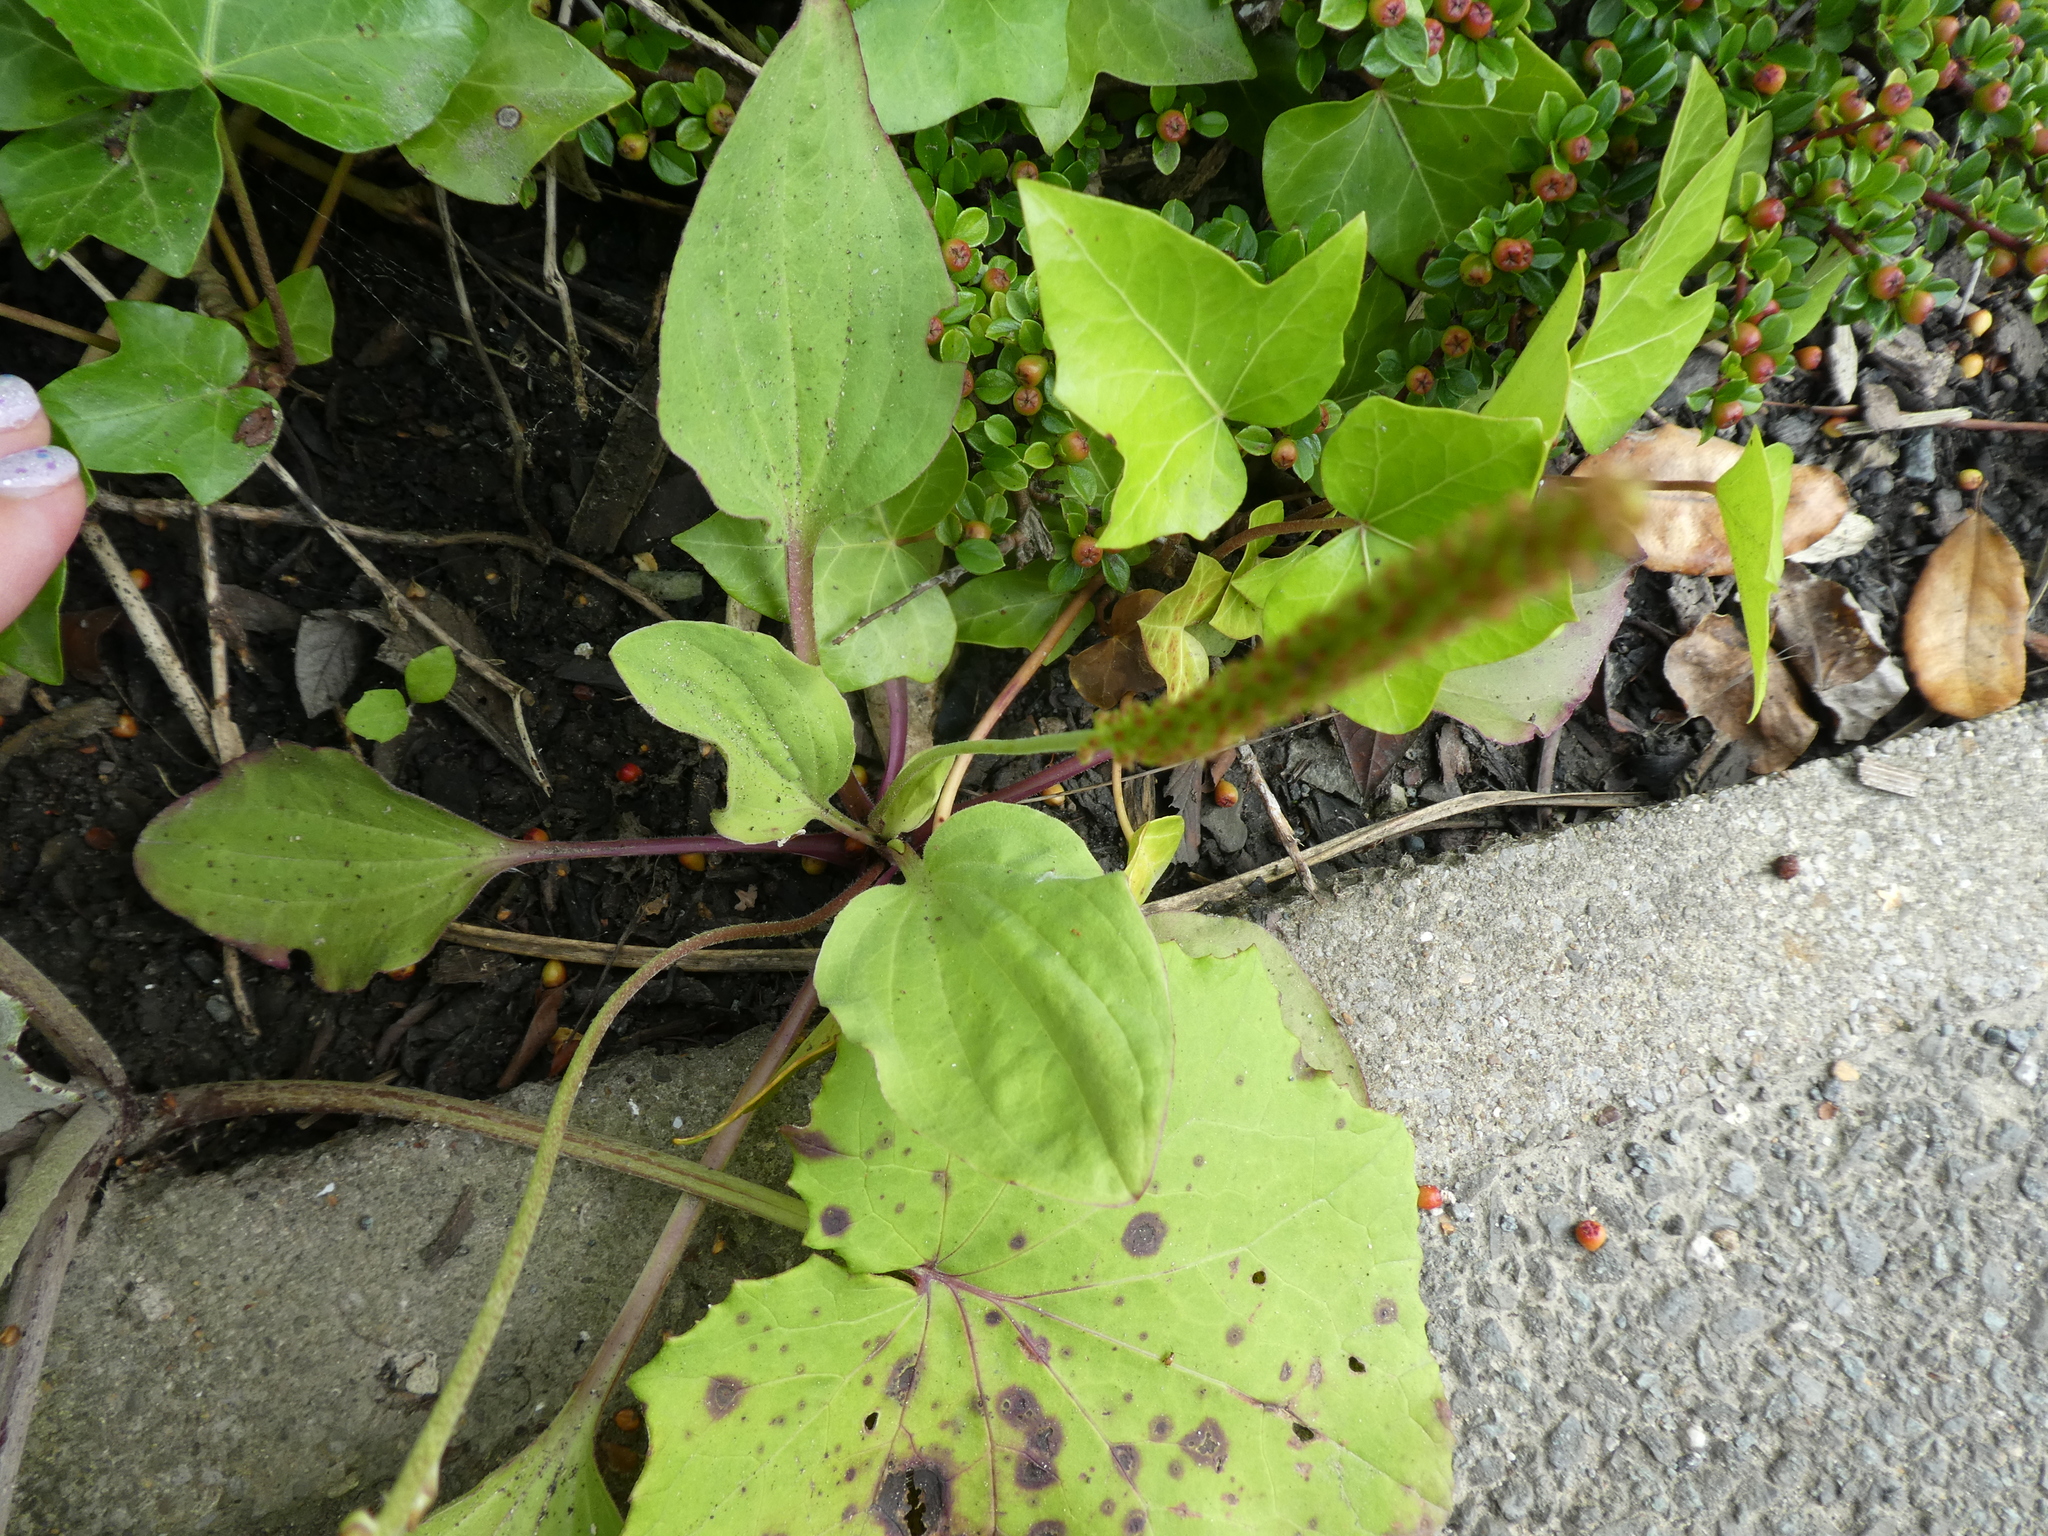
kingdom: Plantae
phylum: Tracheophyta
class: Magnoliopsida
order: Lamiales
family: Plantaginaceae
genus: Plantago
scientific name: Plantago major
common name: Common plantain
